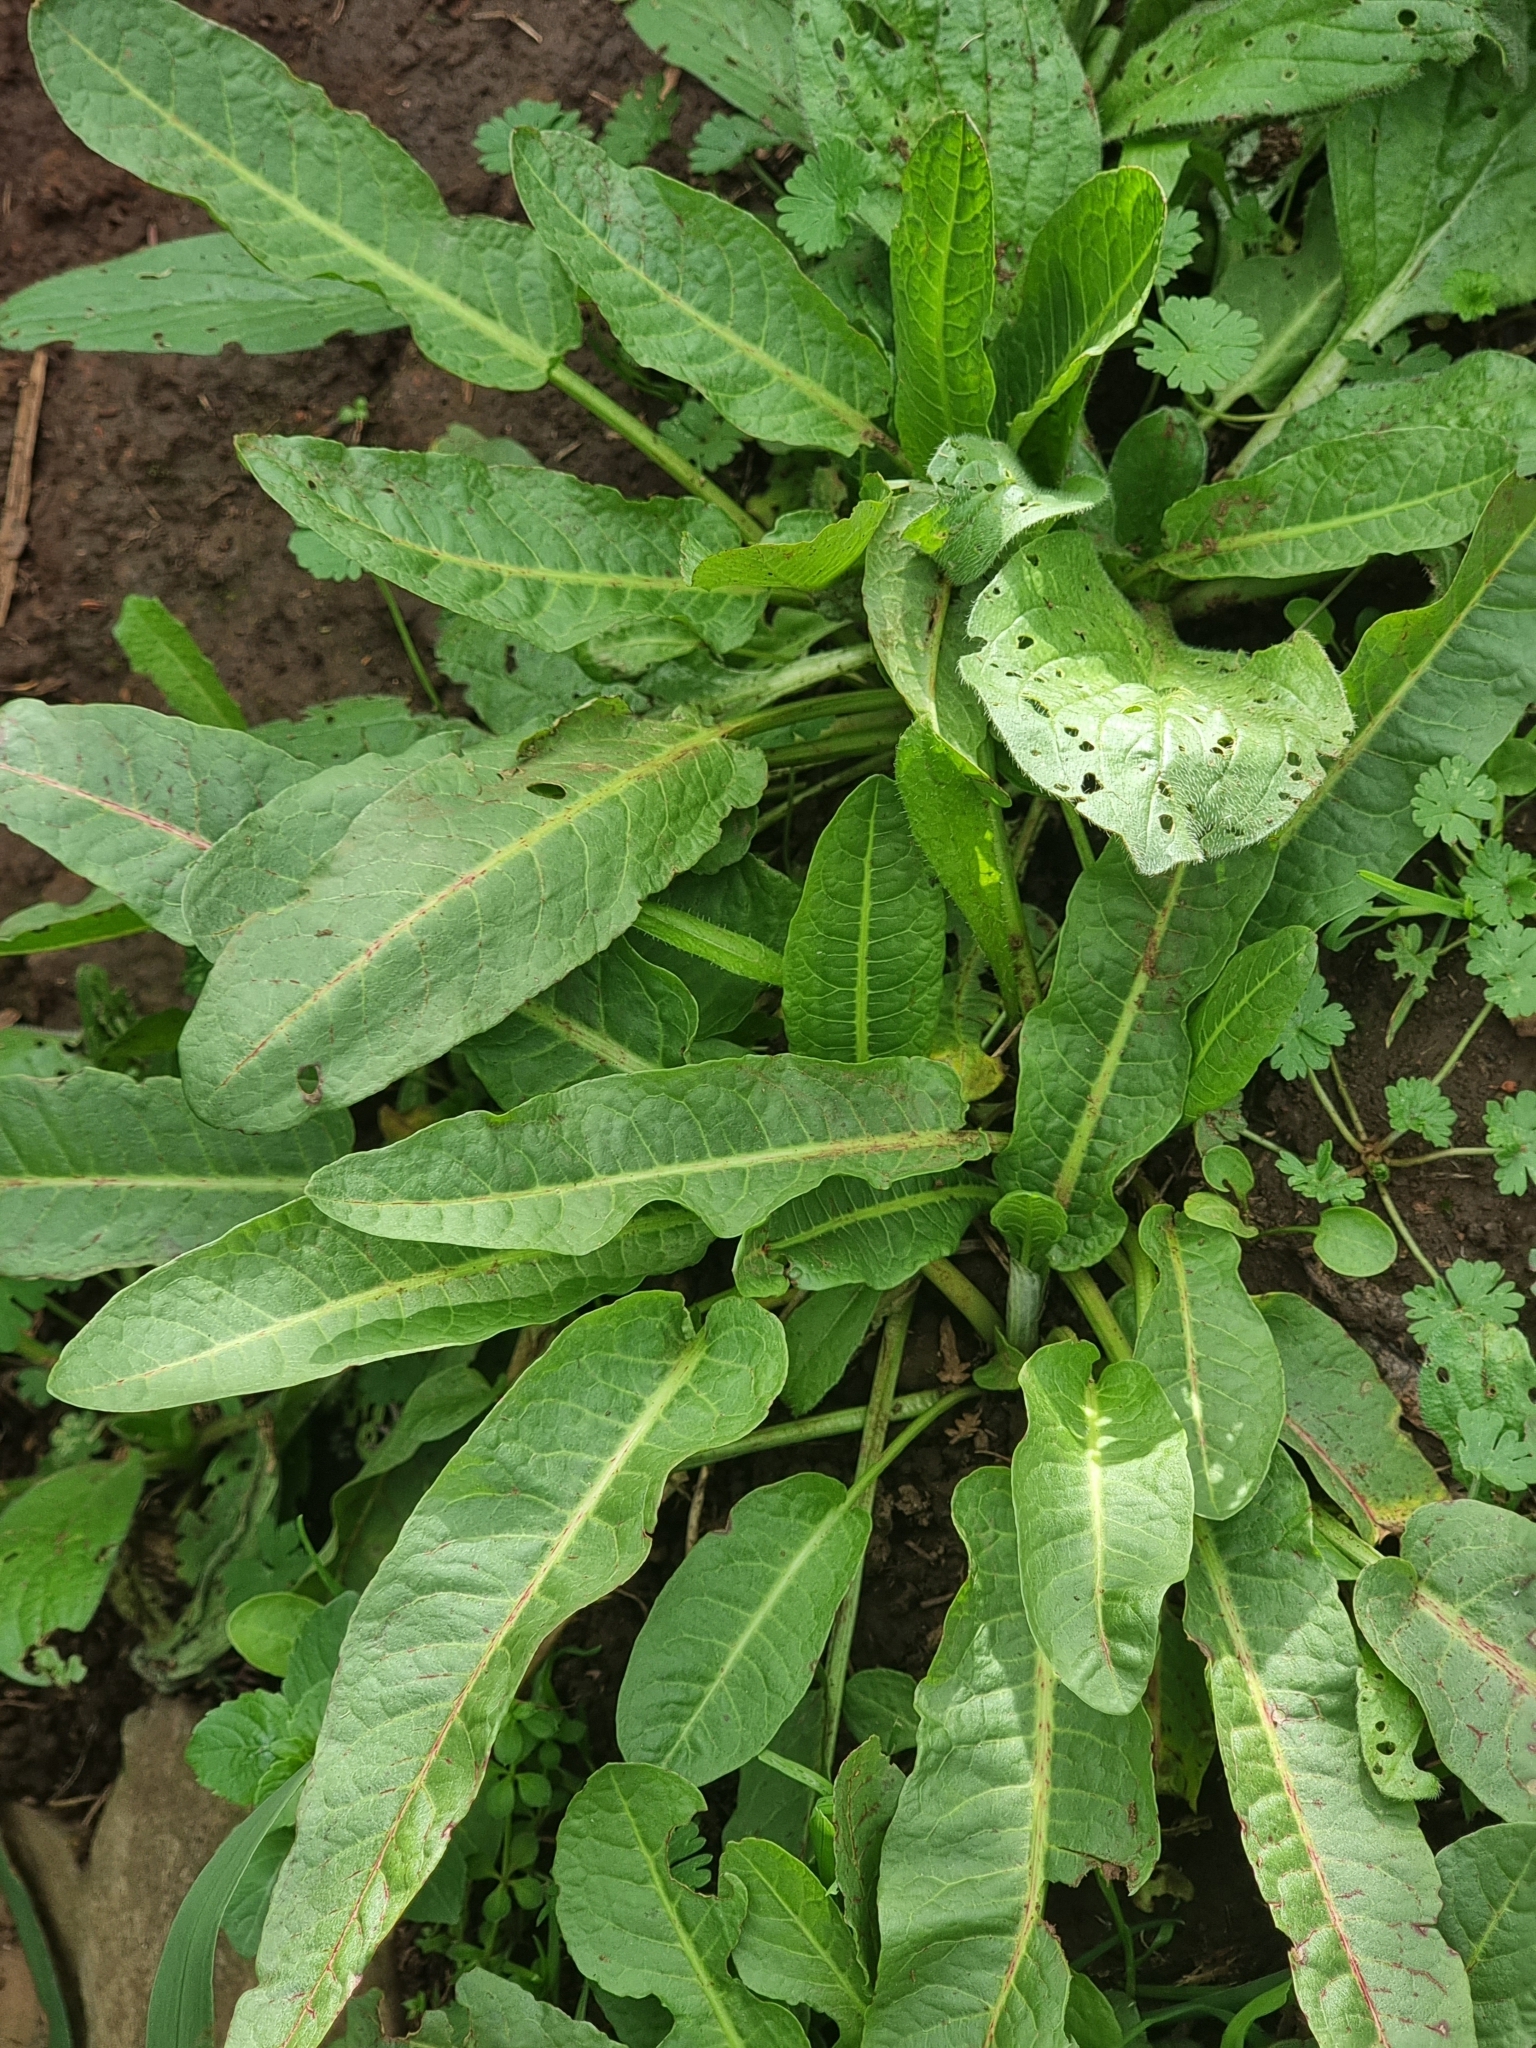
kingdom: Plantae
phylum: Tracheophyta
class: Magnoliopsida
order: Caryophyllales
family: Polygonaceae
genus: Rumex
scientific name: Rumex obtusifolius
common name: Bitter dock
